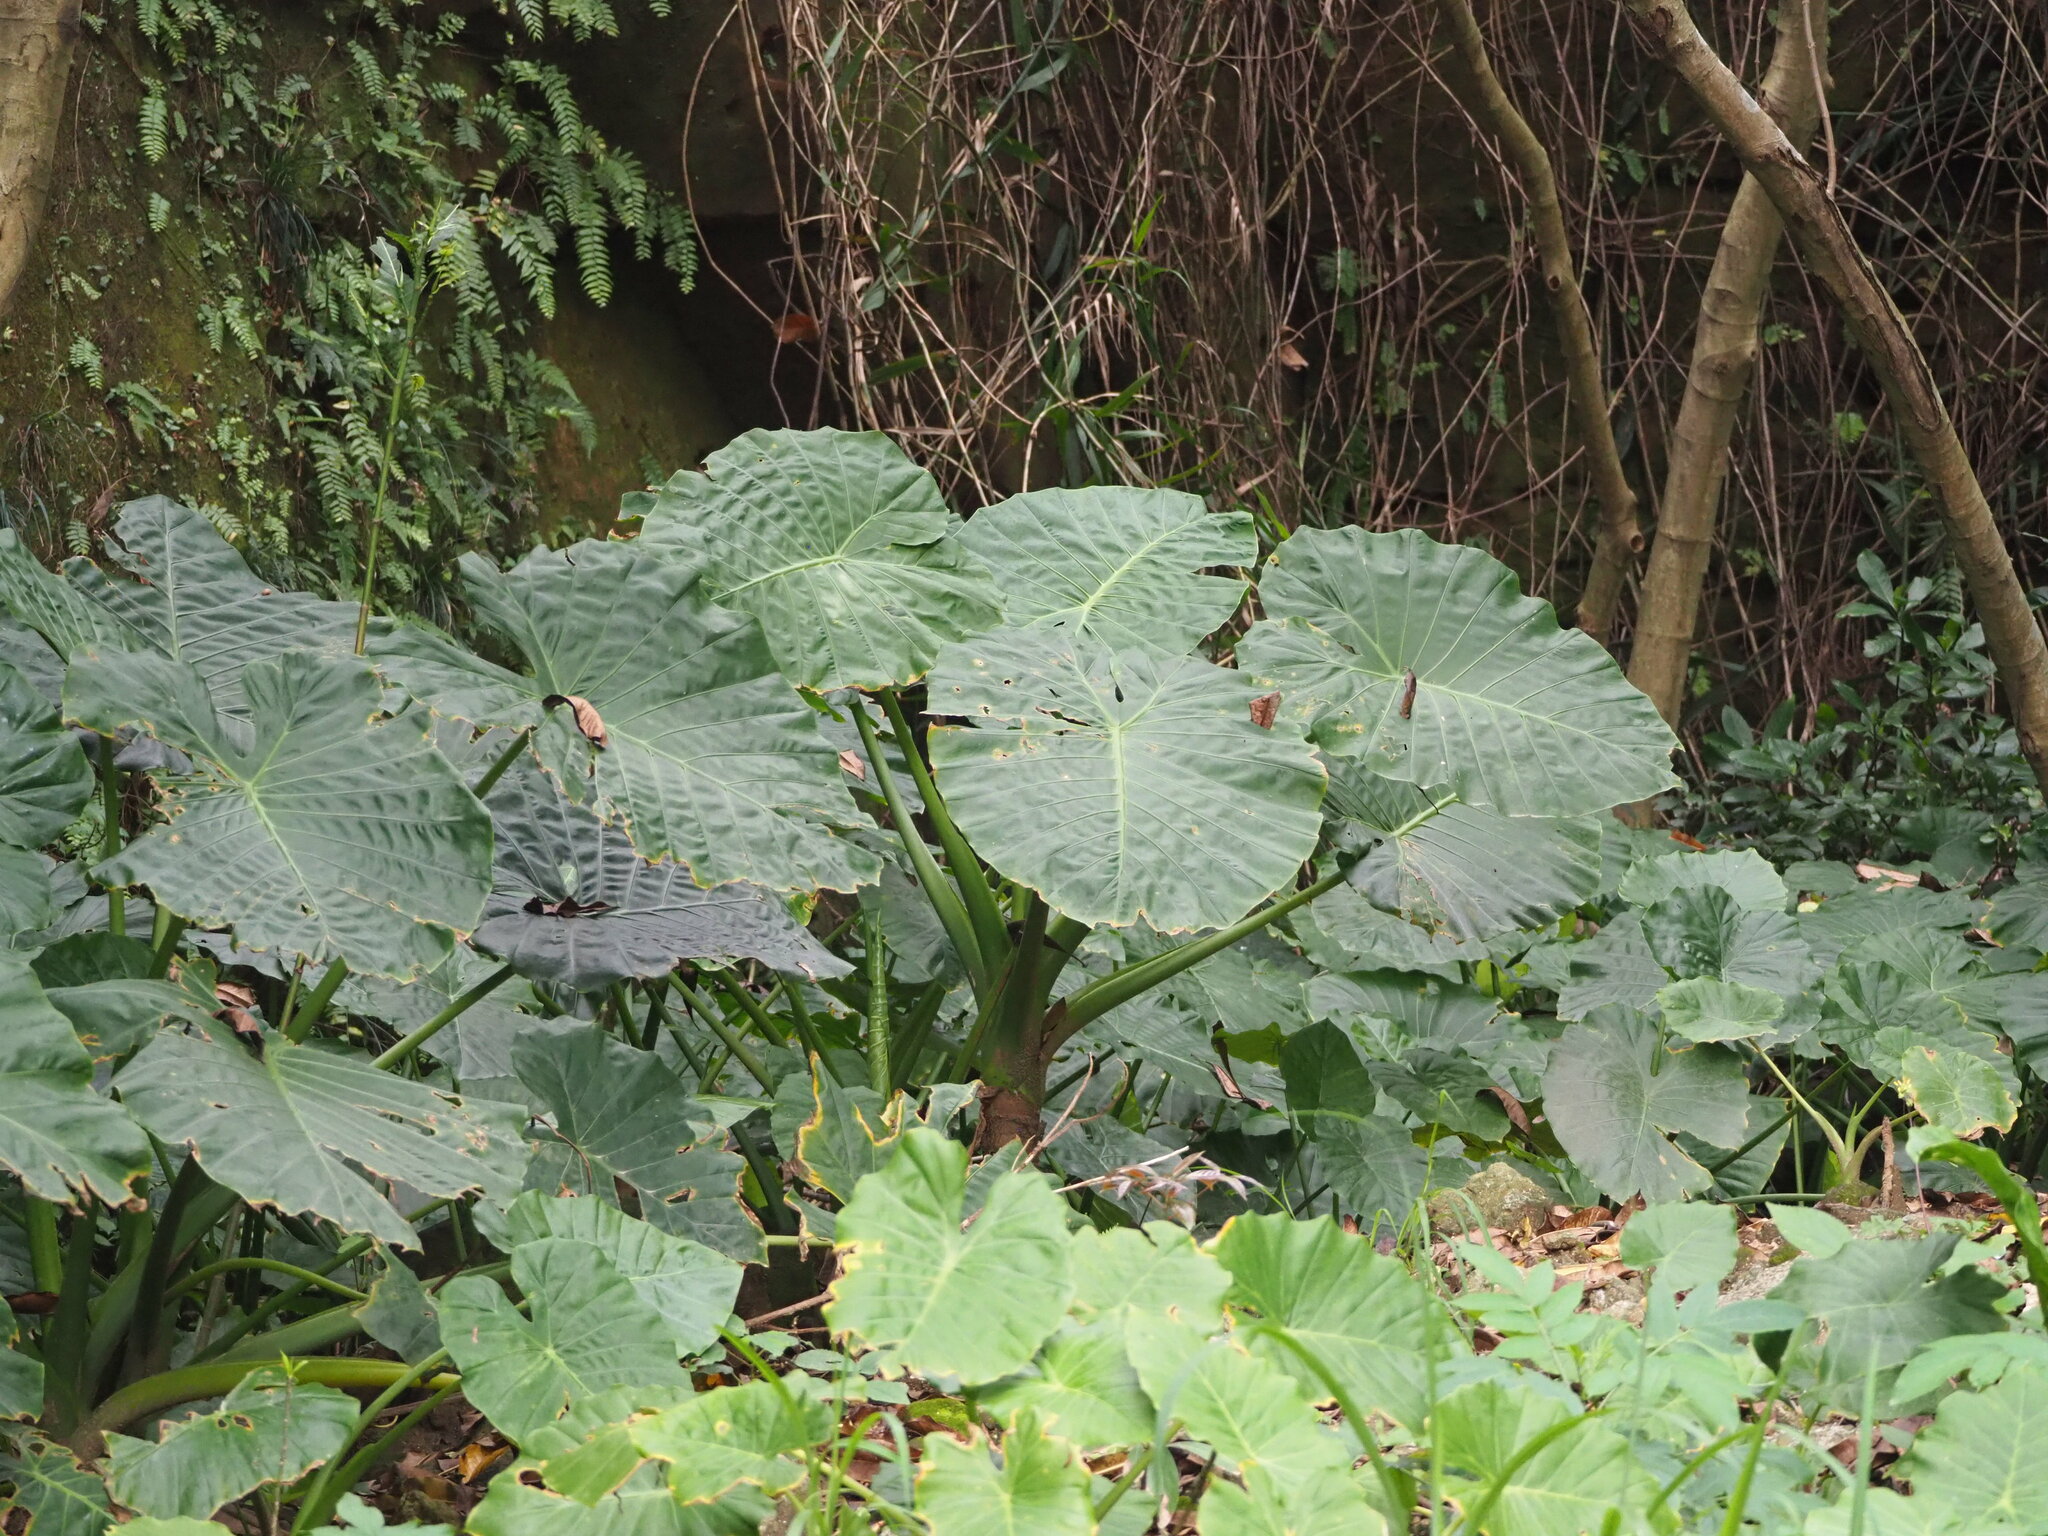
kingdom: Plantae
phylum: Tracheophyta
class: Liliopsida
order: Alismatales
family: Araceae
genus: Alocasia
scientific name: Alocasia odora
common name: Asian taro
